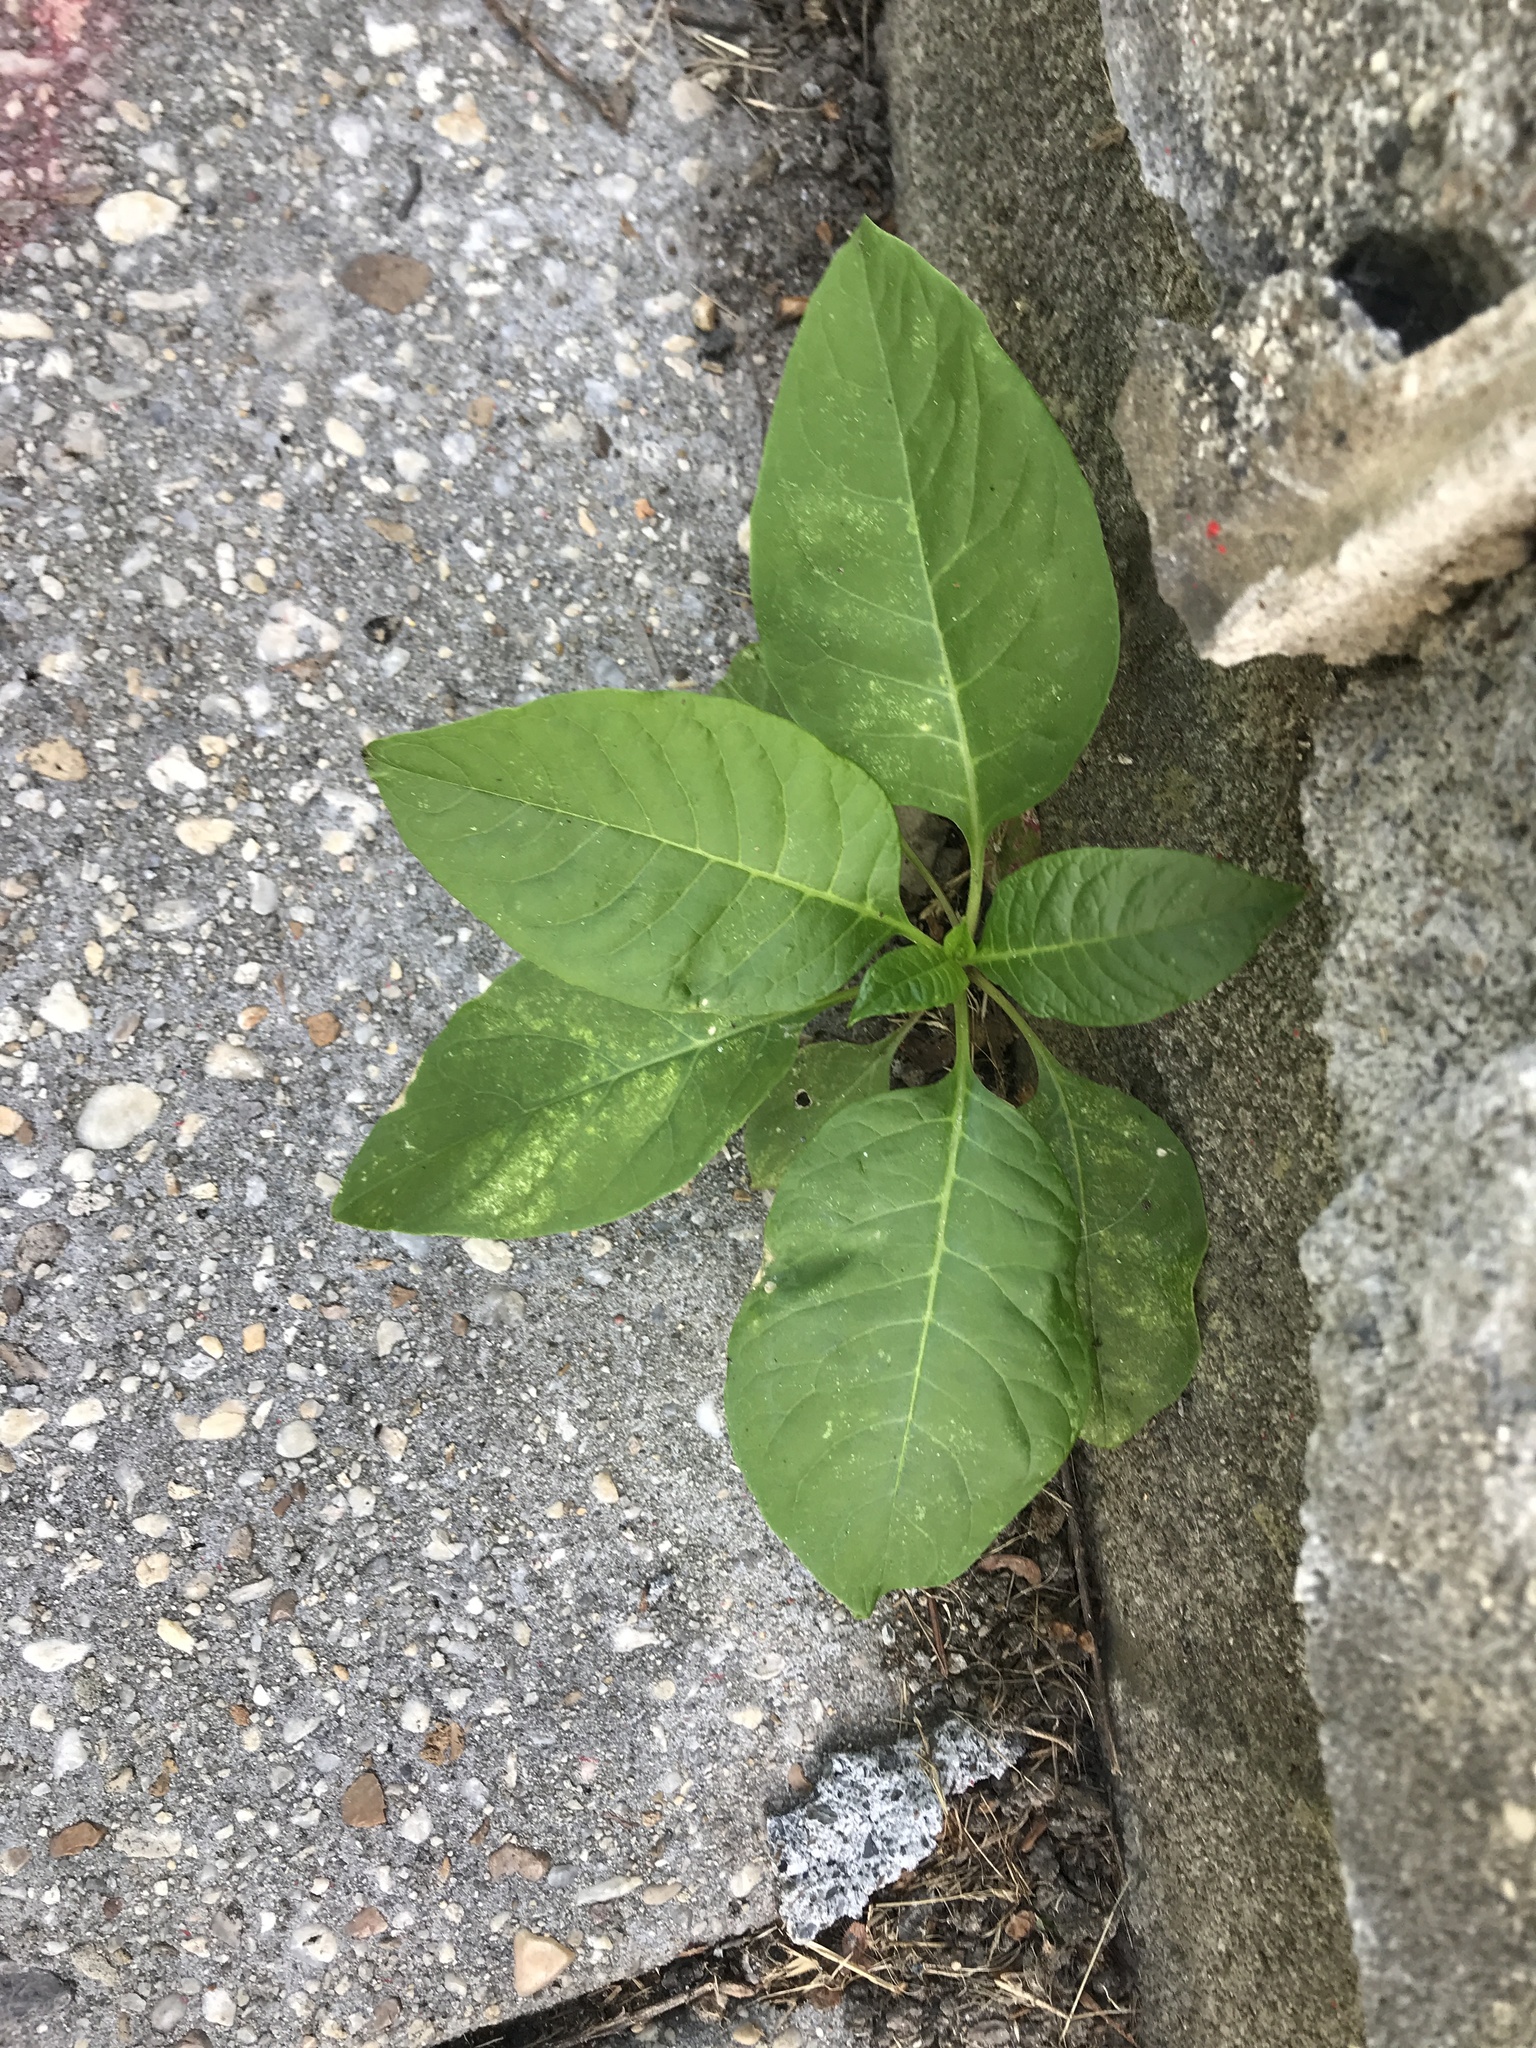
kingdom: Plantae
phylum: Tracheophyta
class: Magnoliopsida
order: Caryophyllales
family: Phytolaccaceae
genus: Phytolacca
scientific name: Phytolacca americana
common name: American pokeweed
